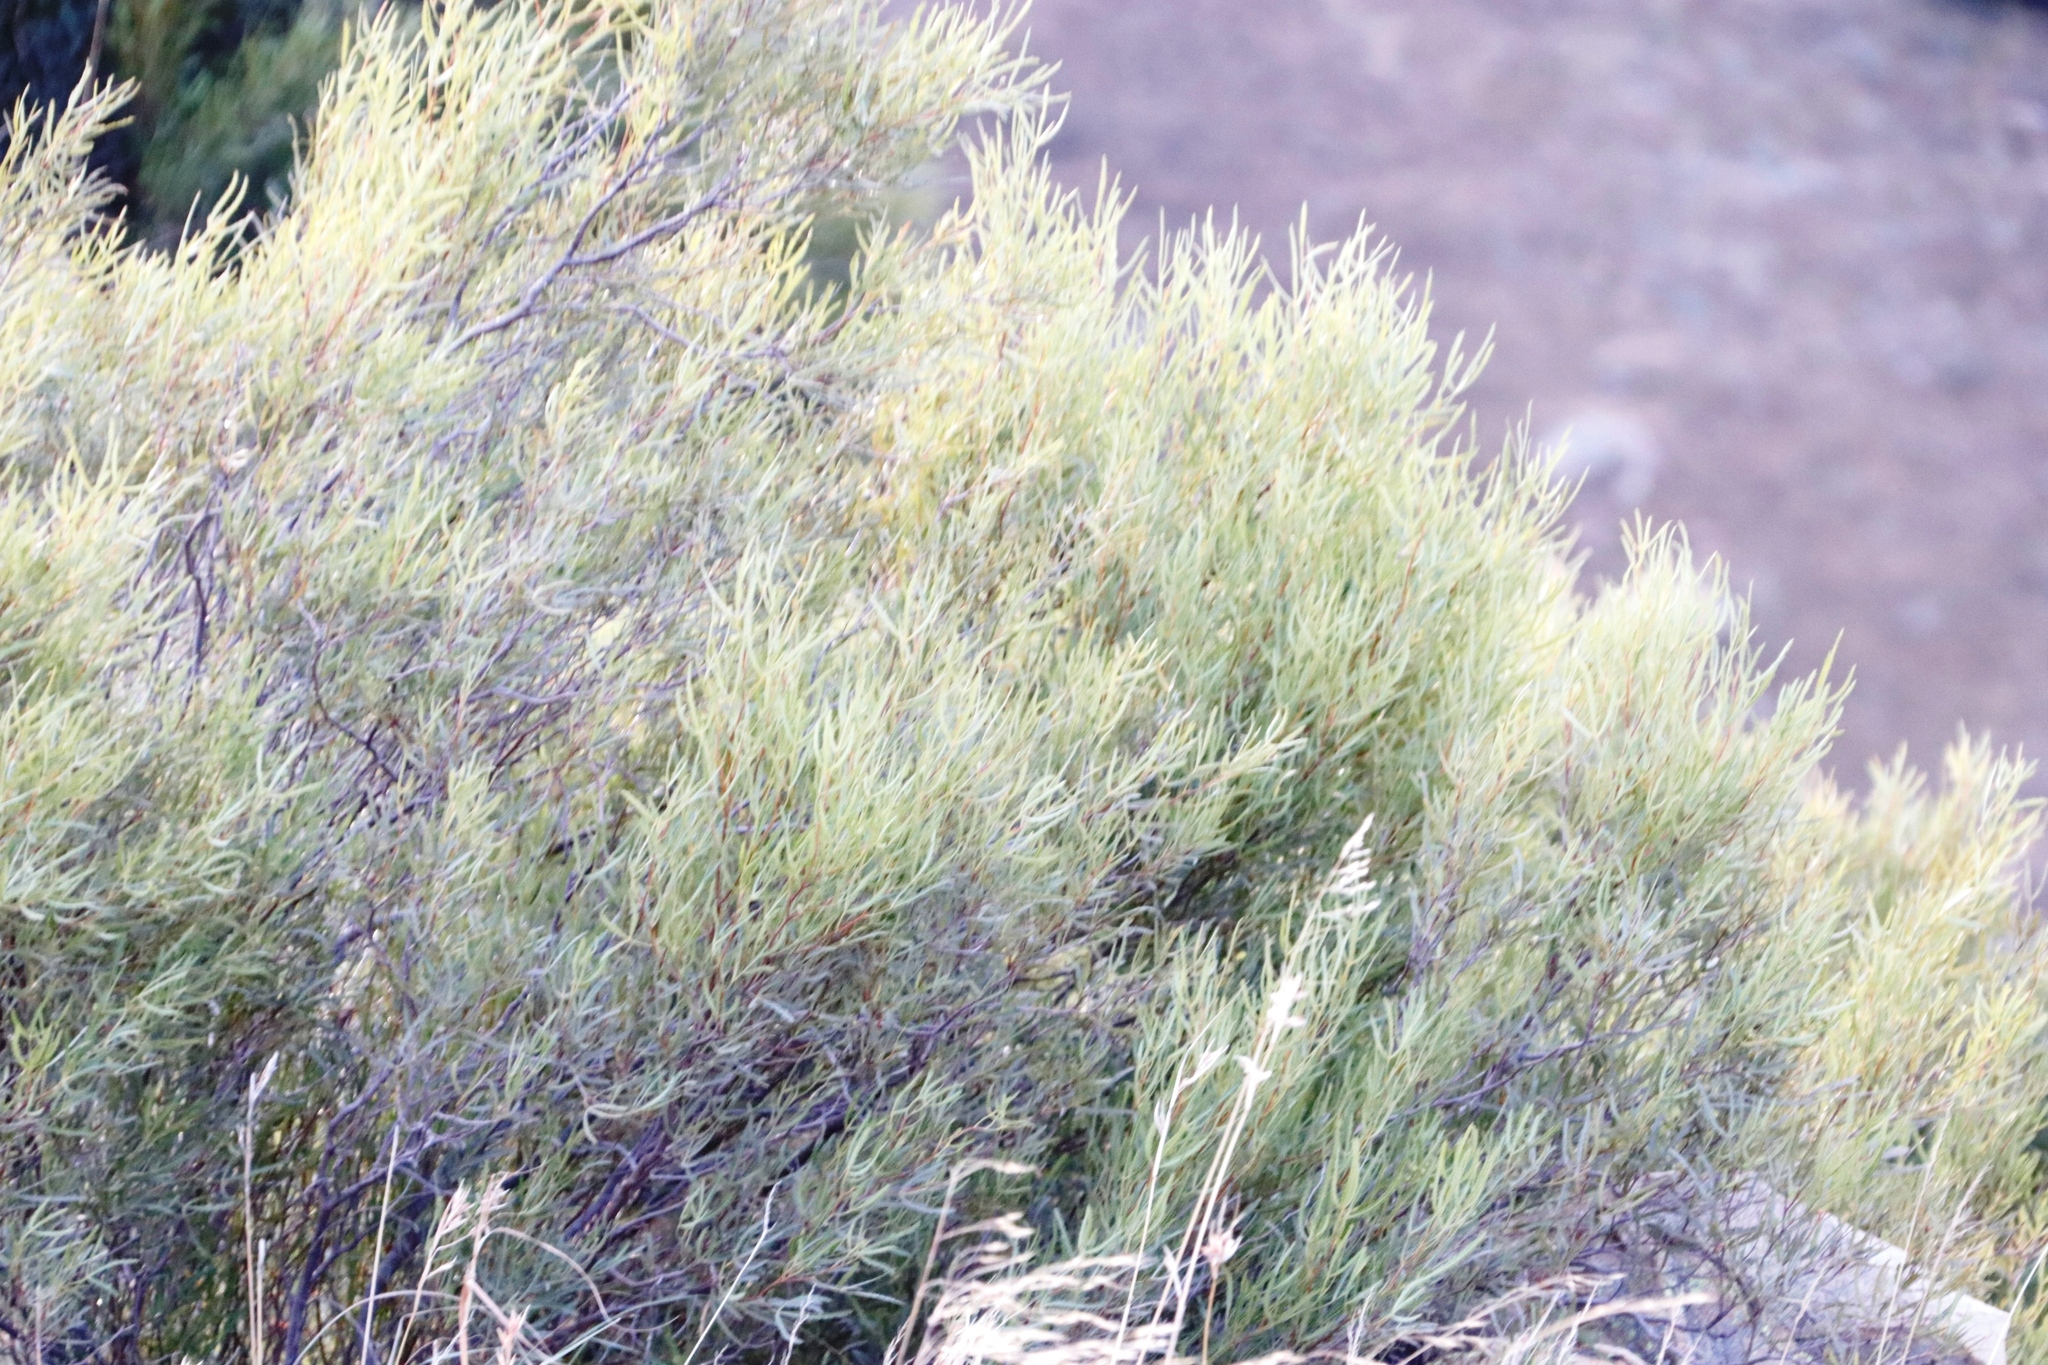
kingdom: Plantae
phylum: Tracheophyta
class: Magnoliopsida
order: Sapindales
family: Anacardiaceae
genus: Searsia
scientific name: Searsia erosa
